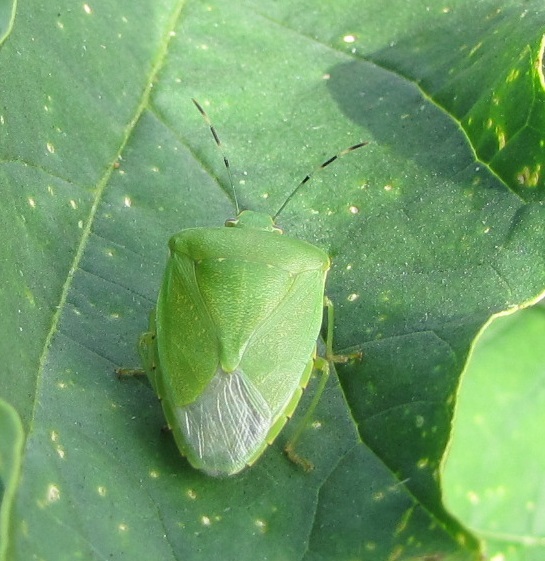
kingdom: Animalia
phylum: Arthropoda
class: Insecta
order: Hemiptera
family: Pentatomidae
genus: Chinavia
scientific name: Chinavia hilaris
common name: Green stink bug
